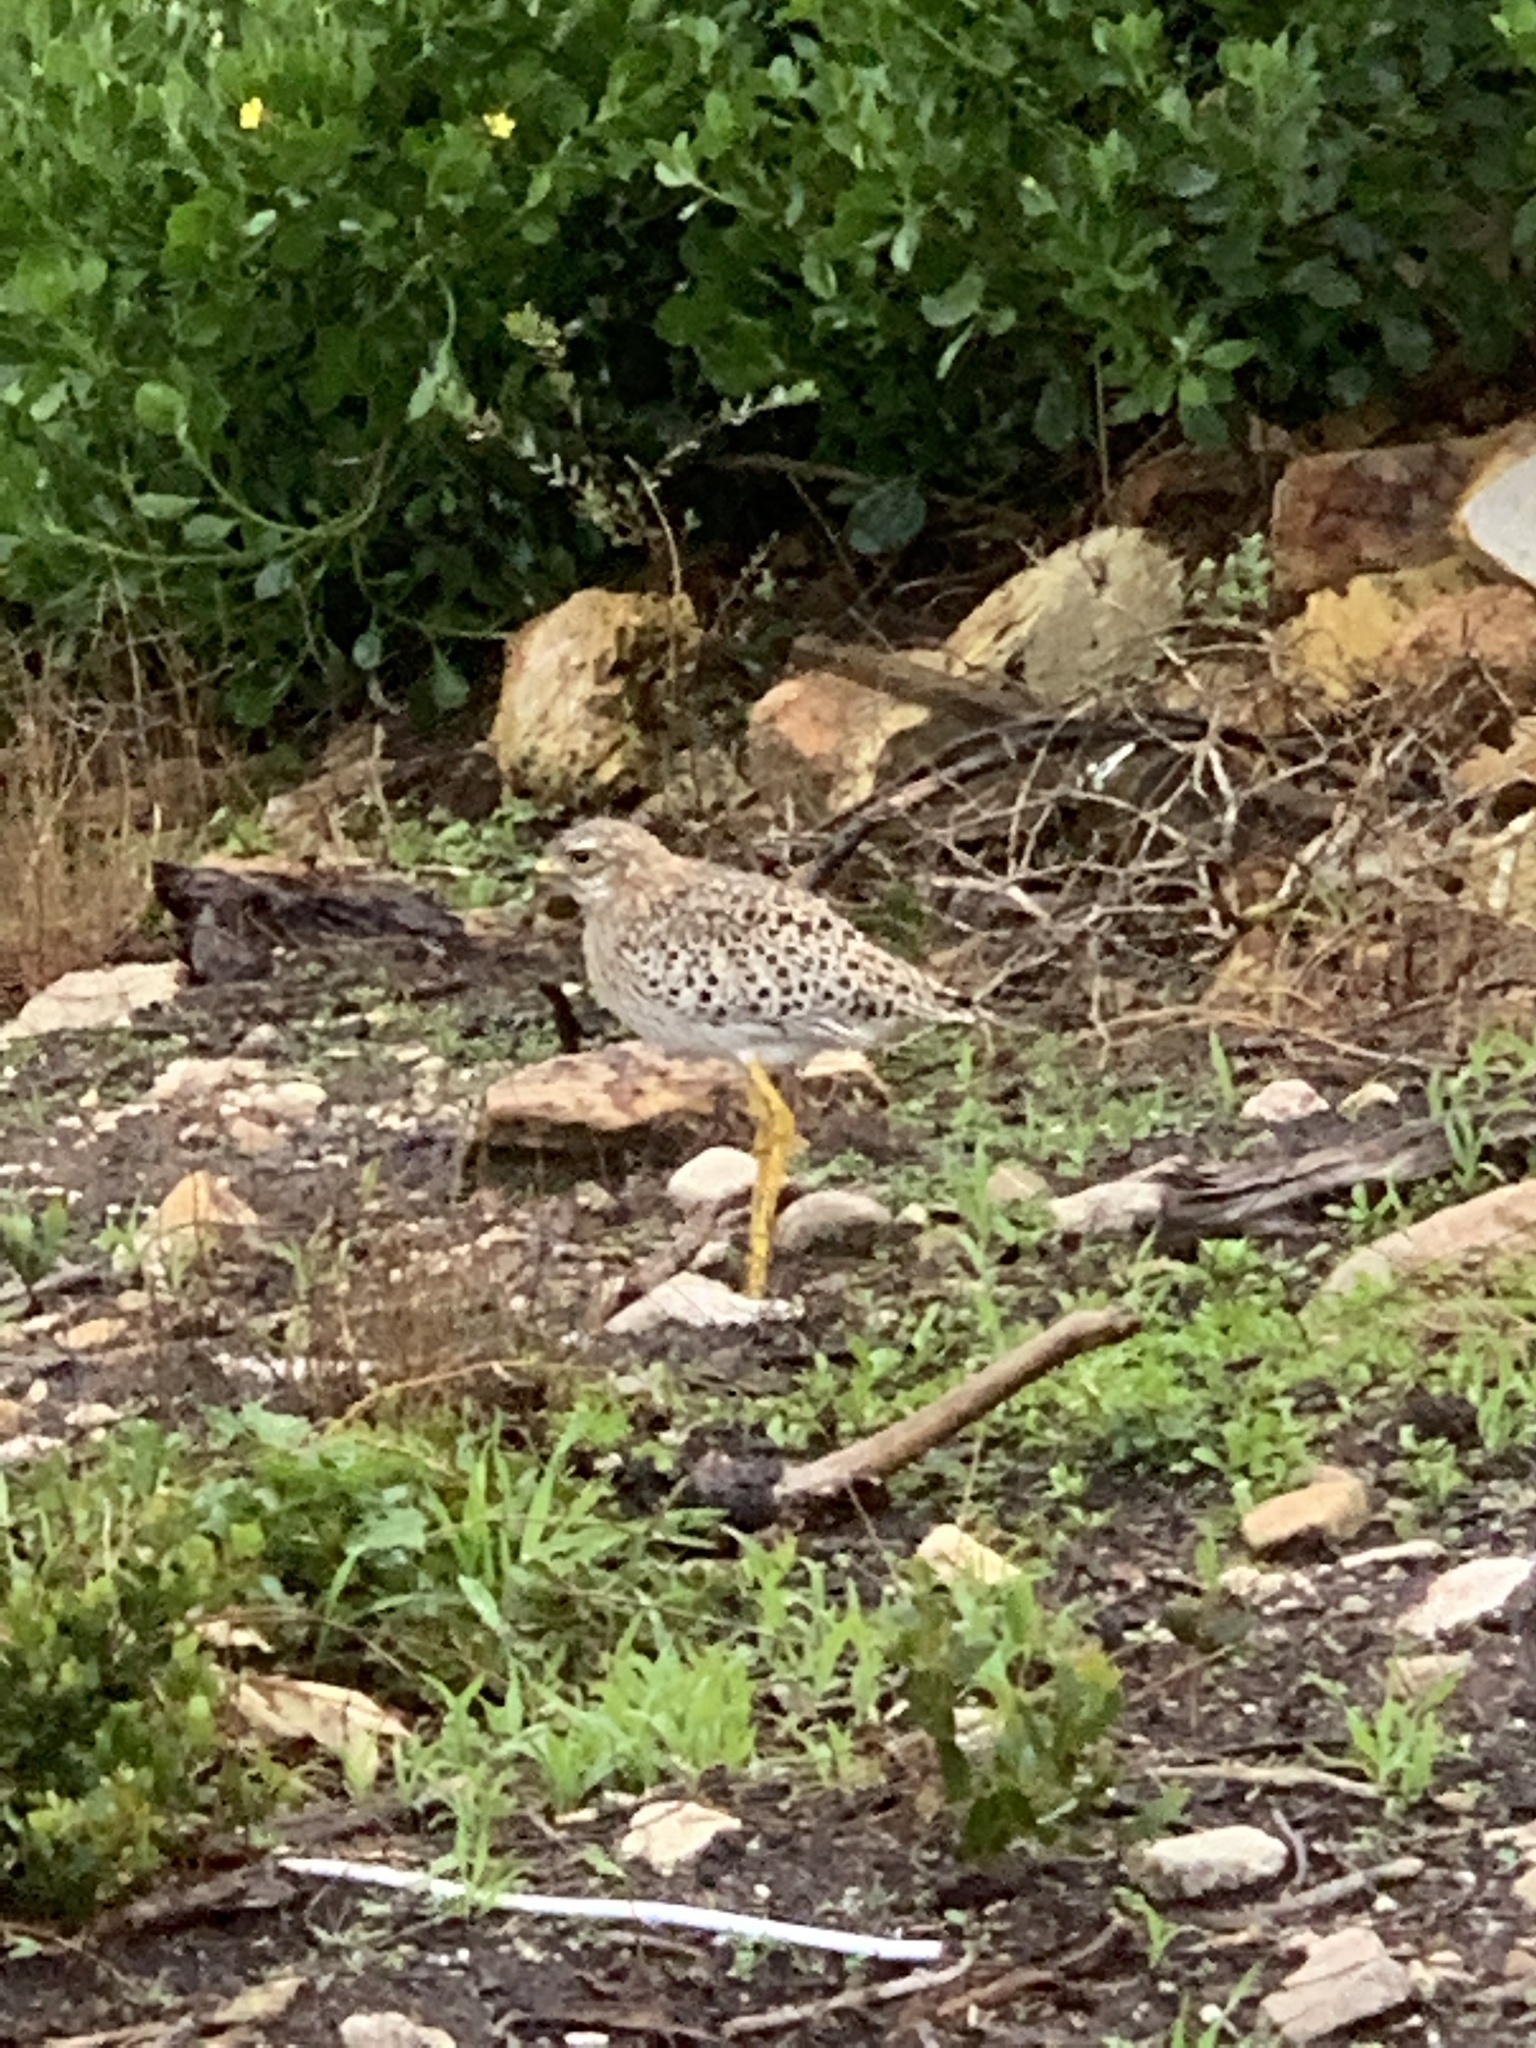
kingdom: Animalia
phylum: Chordata
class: Aves
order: Charadriiformes
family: Burhinidae
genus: Burhinus
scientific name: Burhinus capensis
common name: Spotted thick-knee
